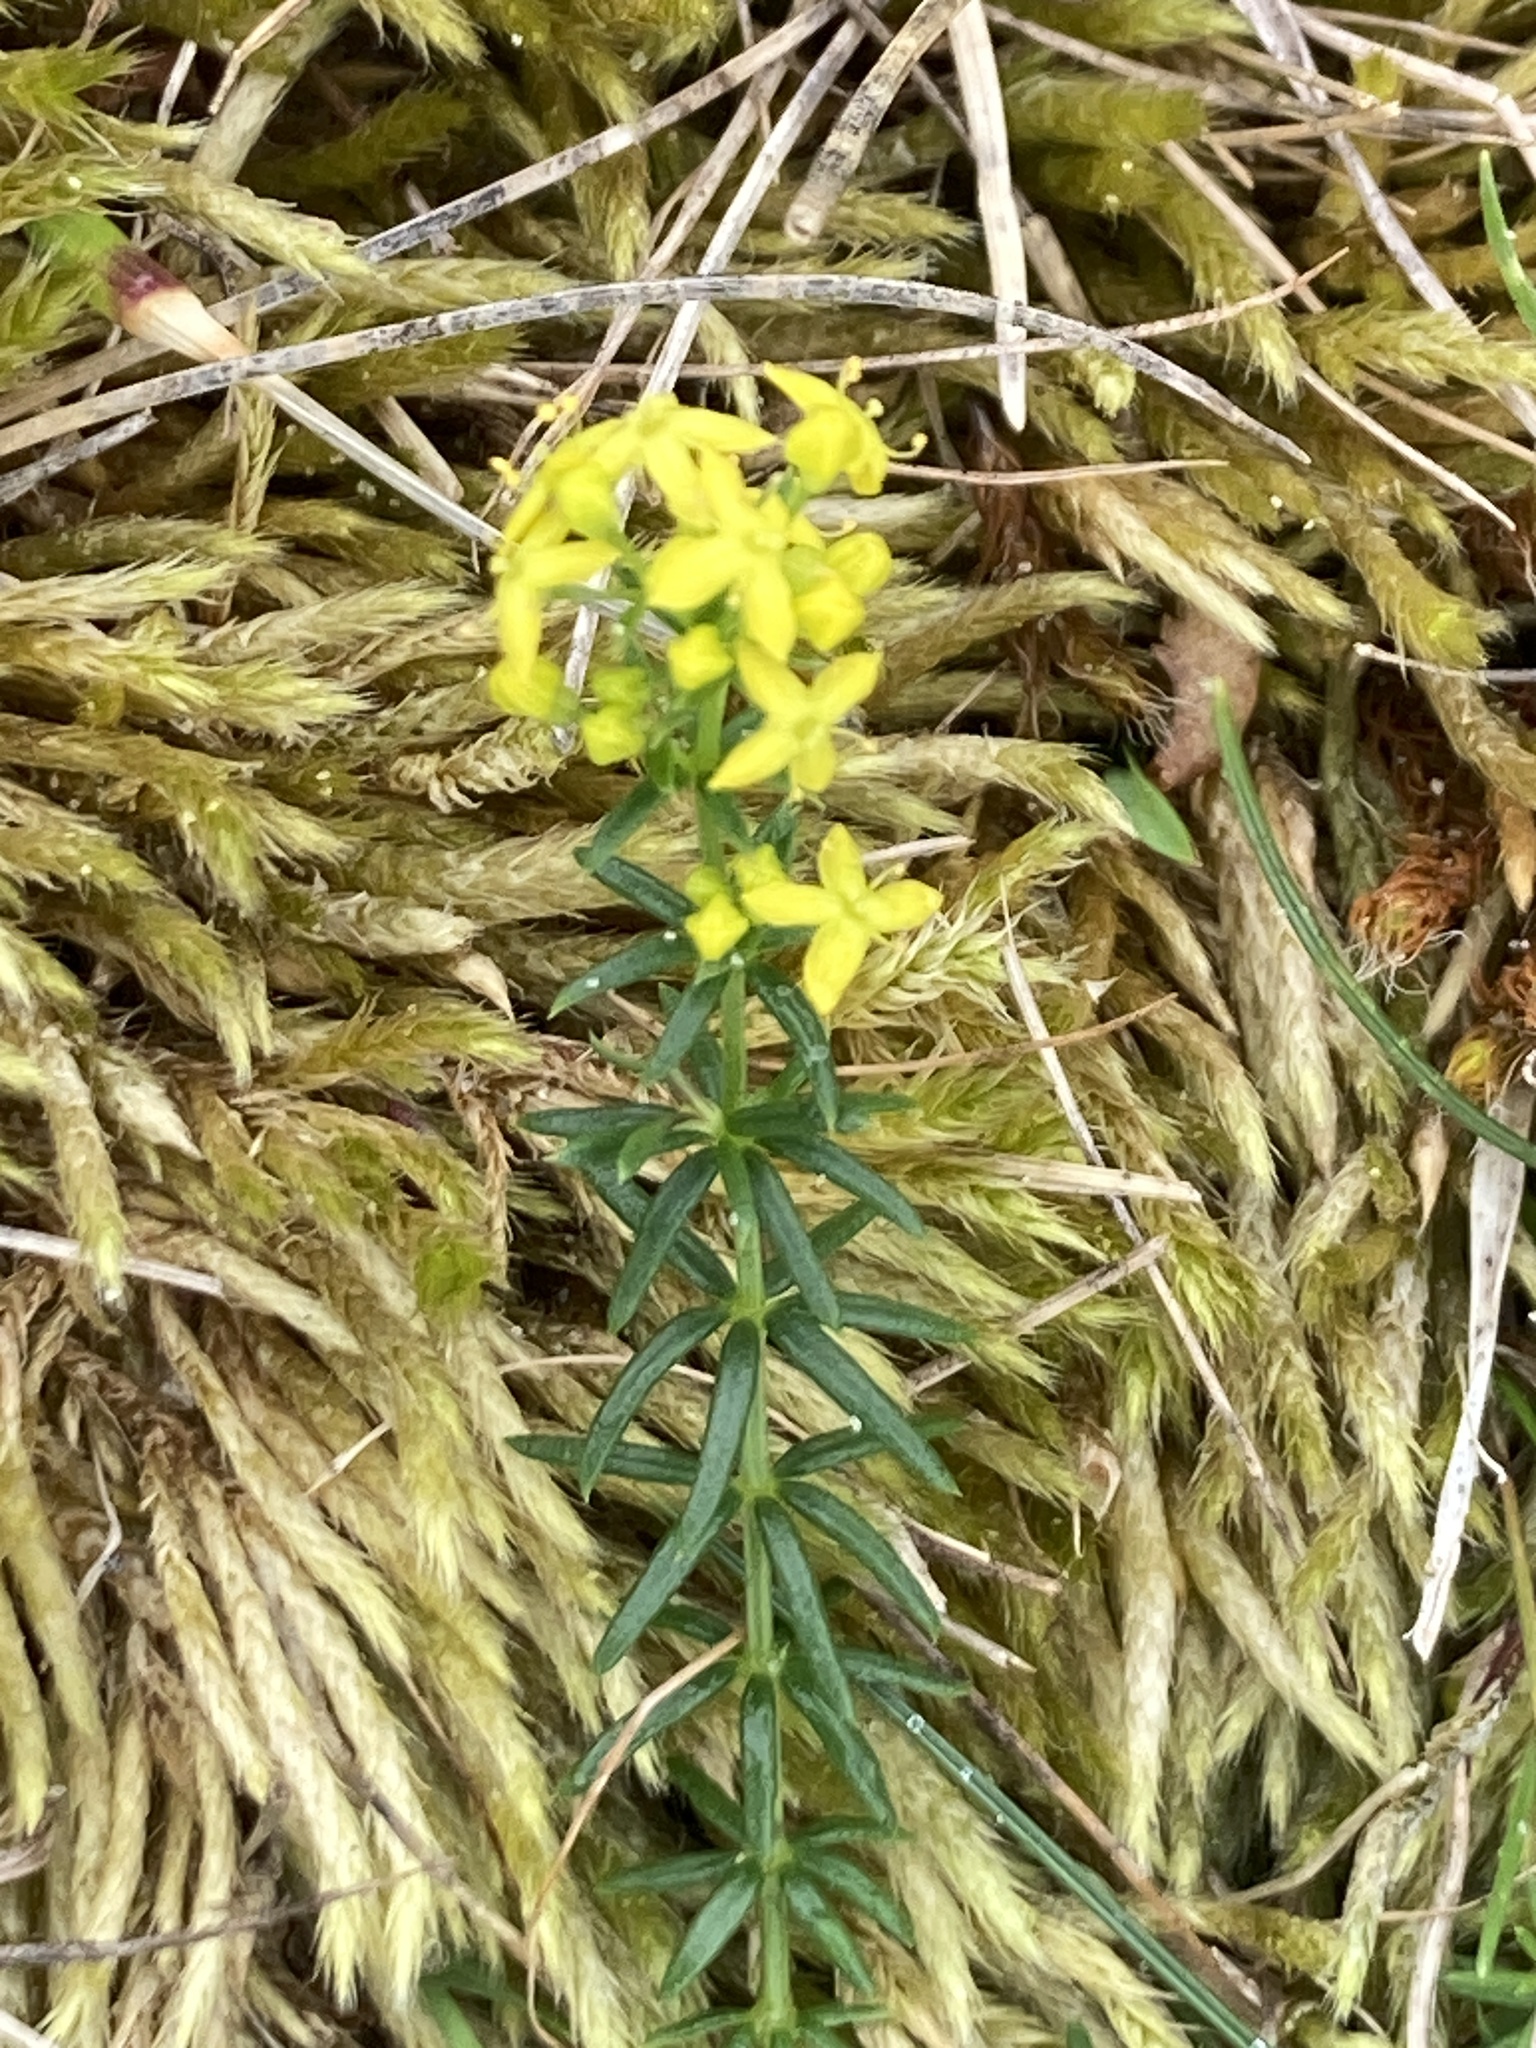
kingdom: Plantae
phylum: Tracheophyta
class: Magnoliopsida
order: Gentianales
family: Rubiaceae
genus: Galium
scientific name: Galium verum
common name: Lady's bedstraw
